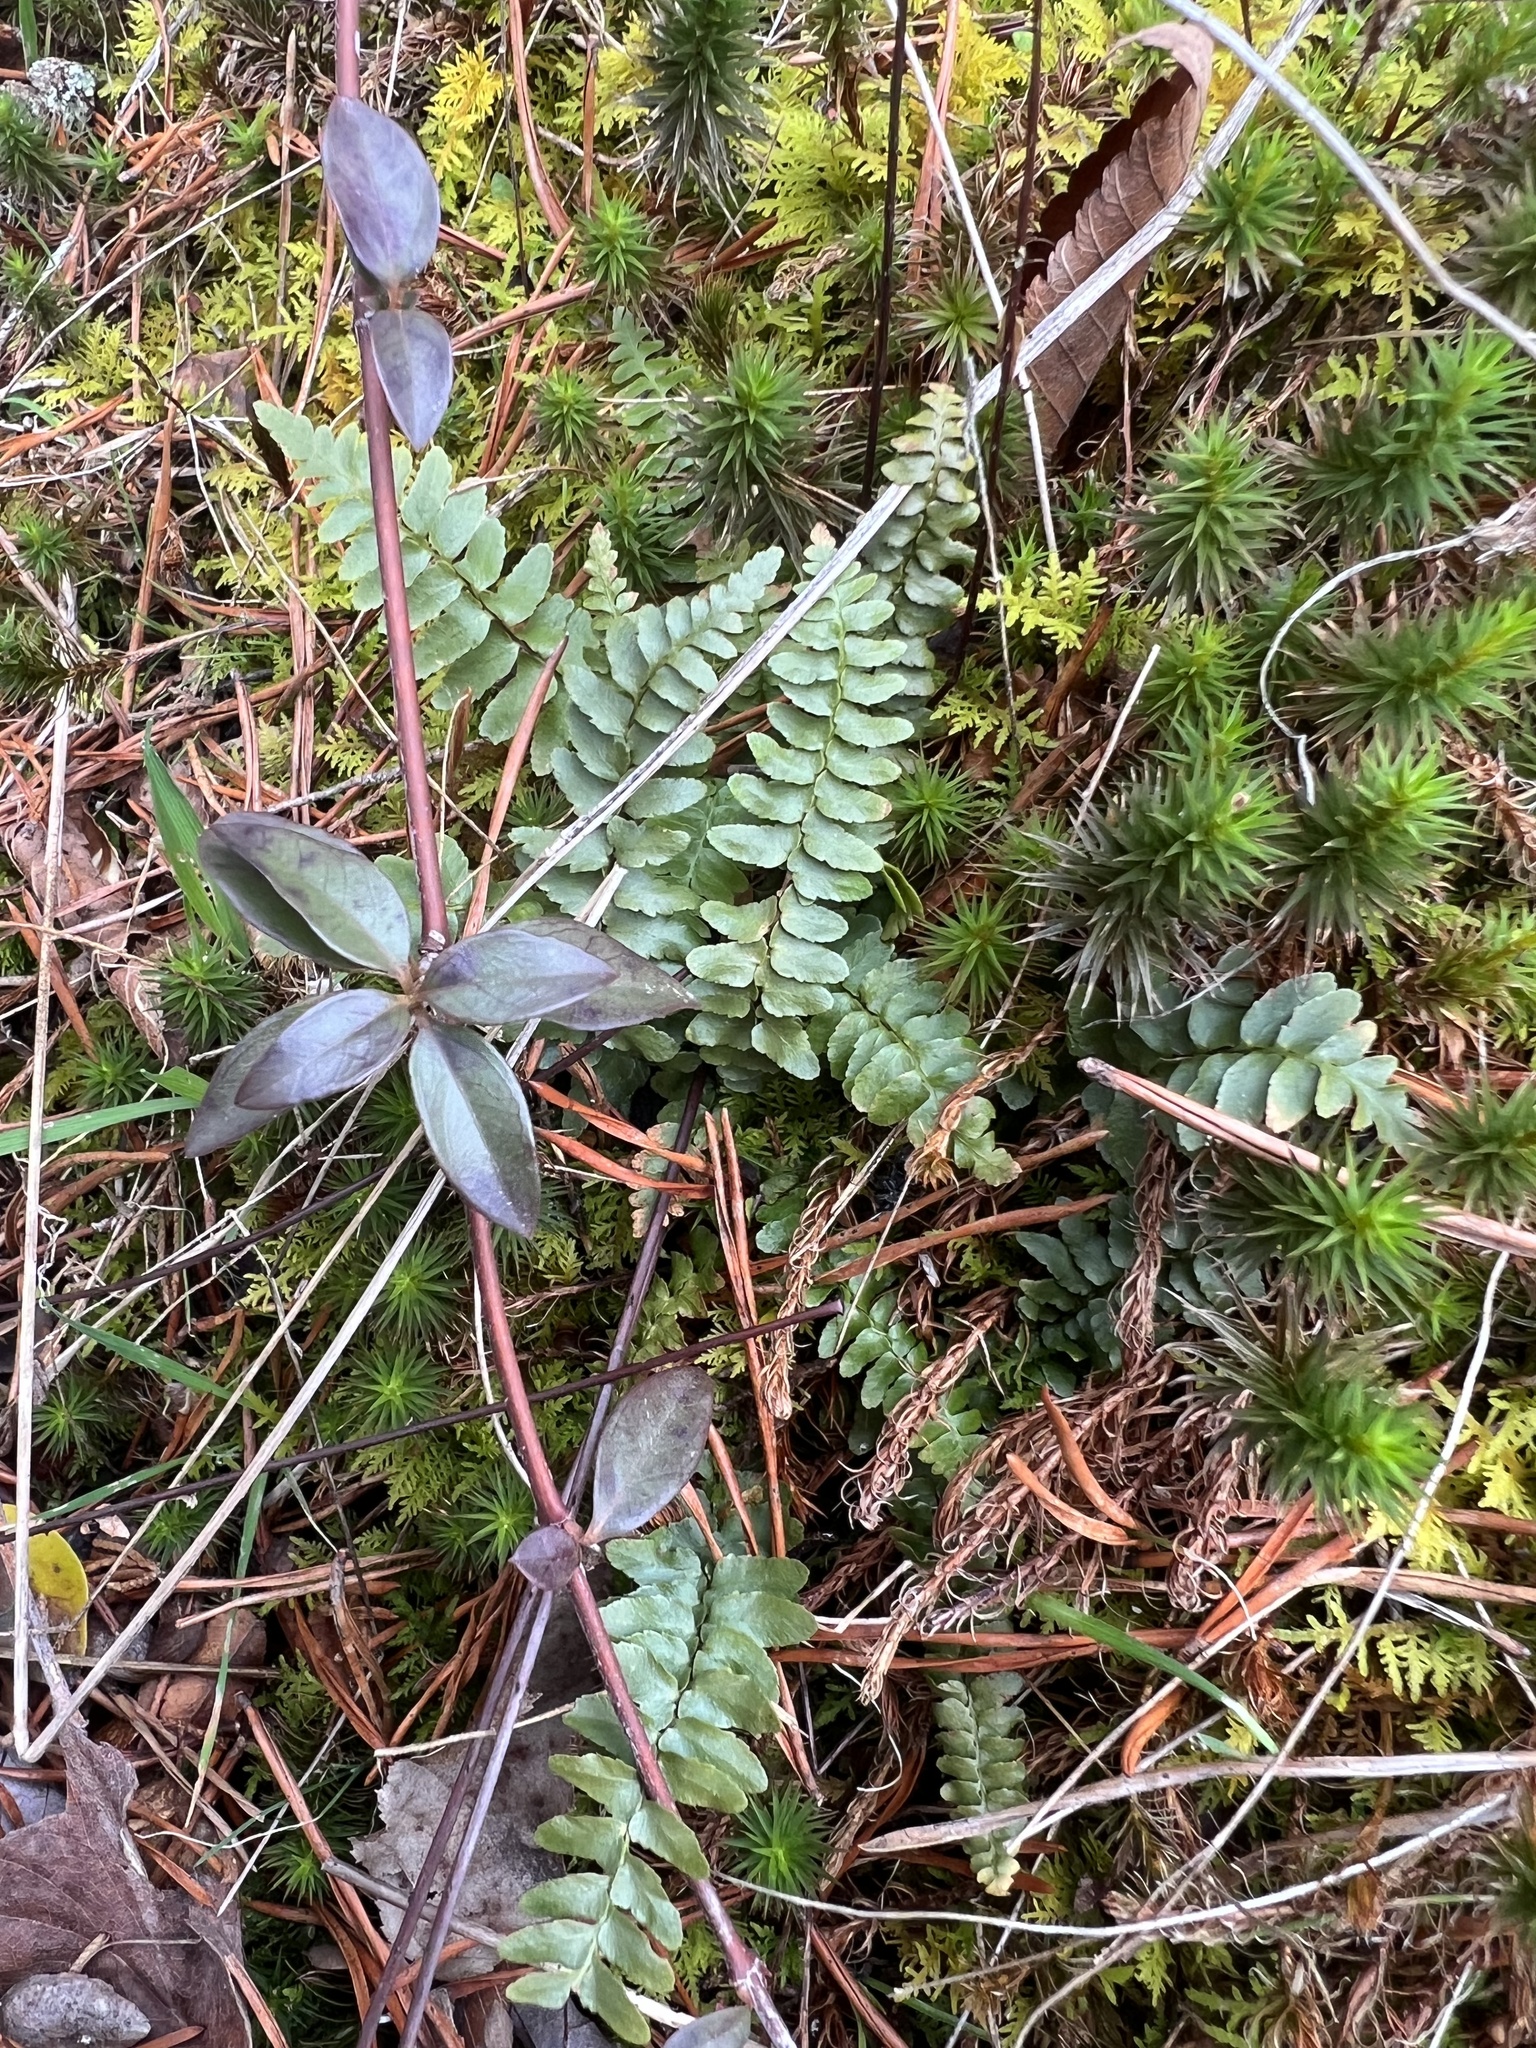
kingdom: Plantae
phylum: Tracheophyta
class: Polypodiopsida
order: Polypodiales
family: Aspleniaceae
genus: Asplenium
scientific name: Asplenium platyneuron
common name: Ebony spleenwort
